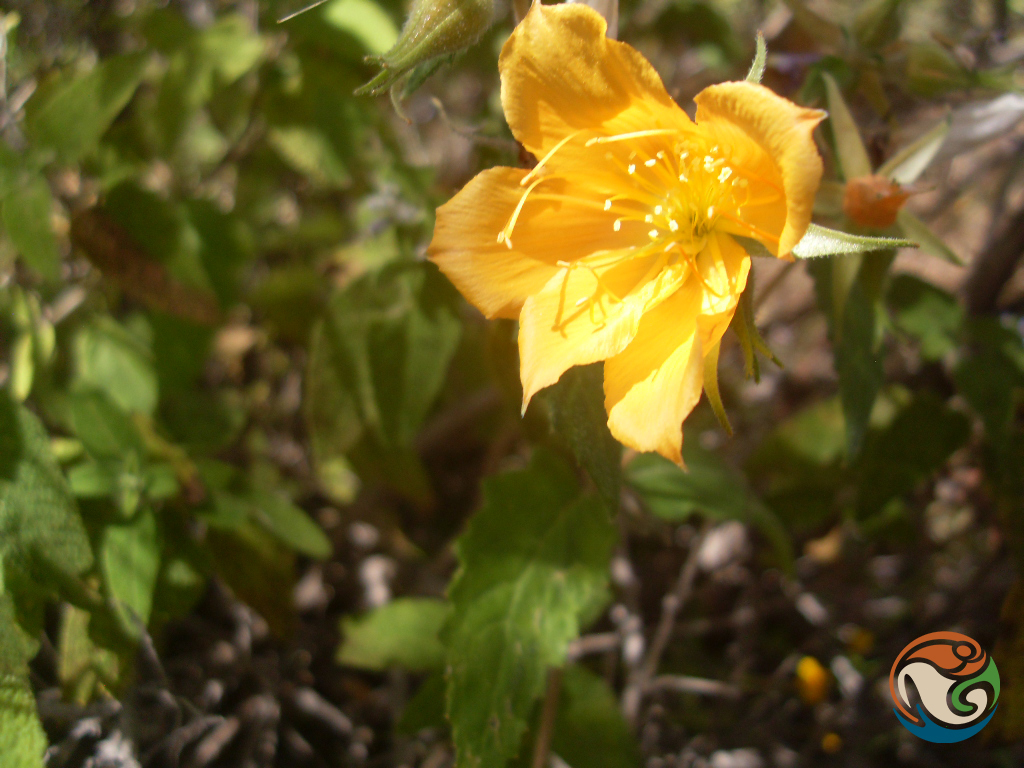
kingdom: Plantae
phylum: Tracheophyta
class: Magnoliopsida
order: Cornales
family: Loasaceae
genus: Mentzelia
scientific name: Mentzelia hispida
